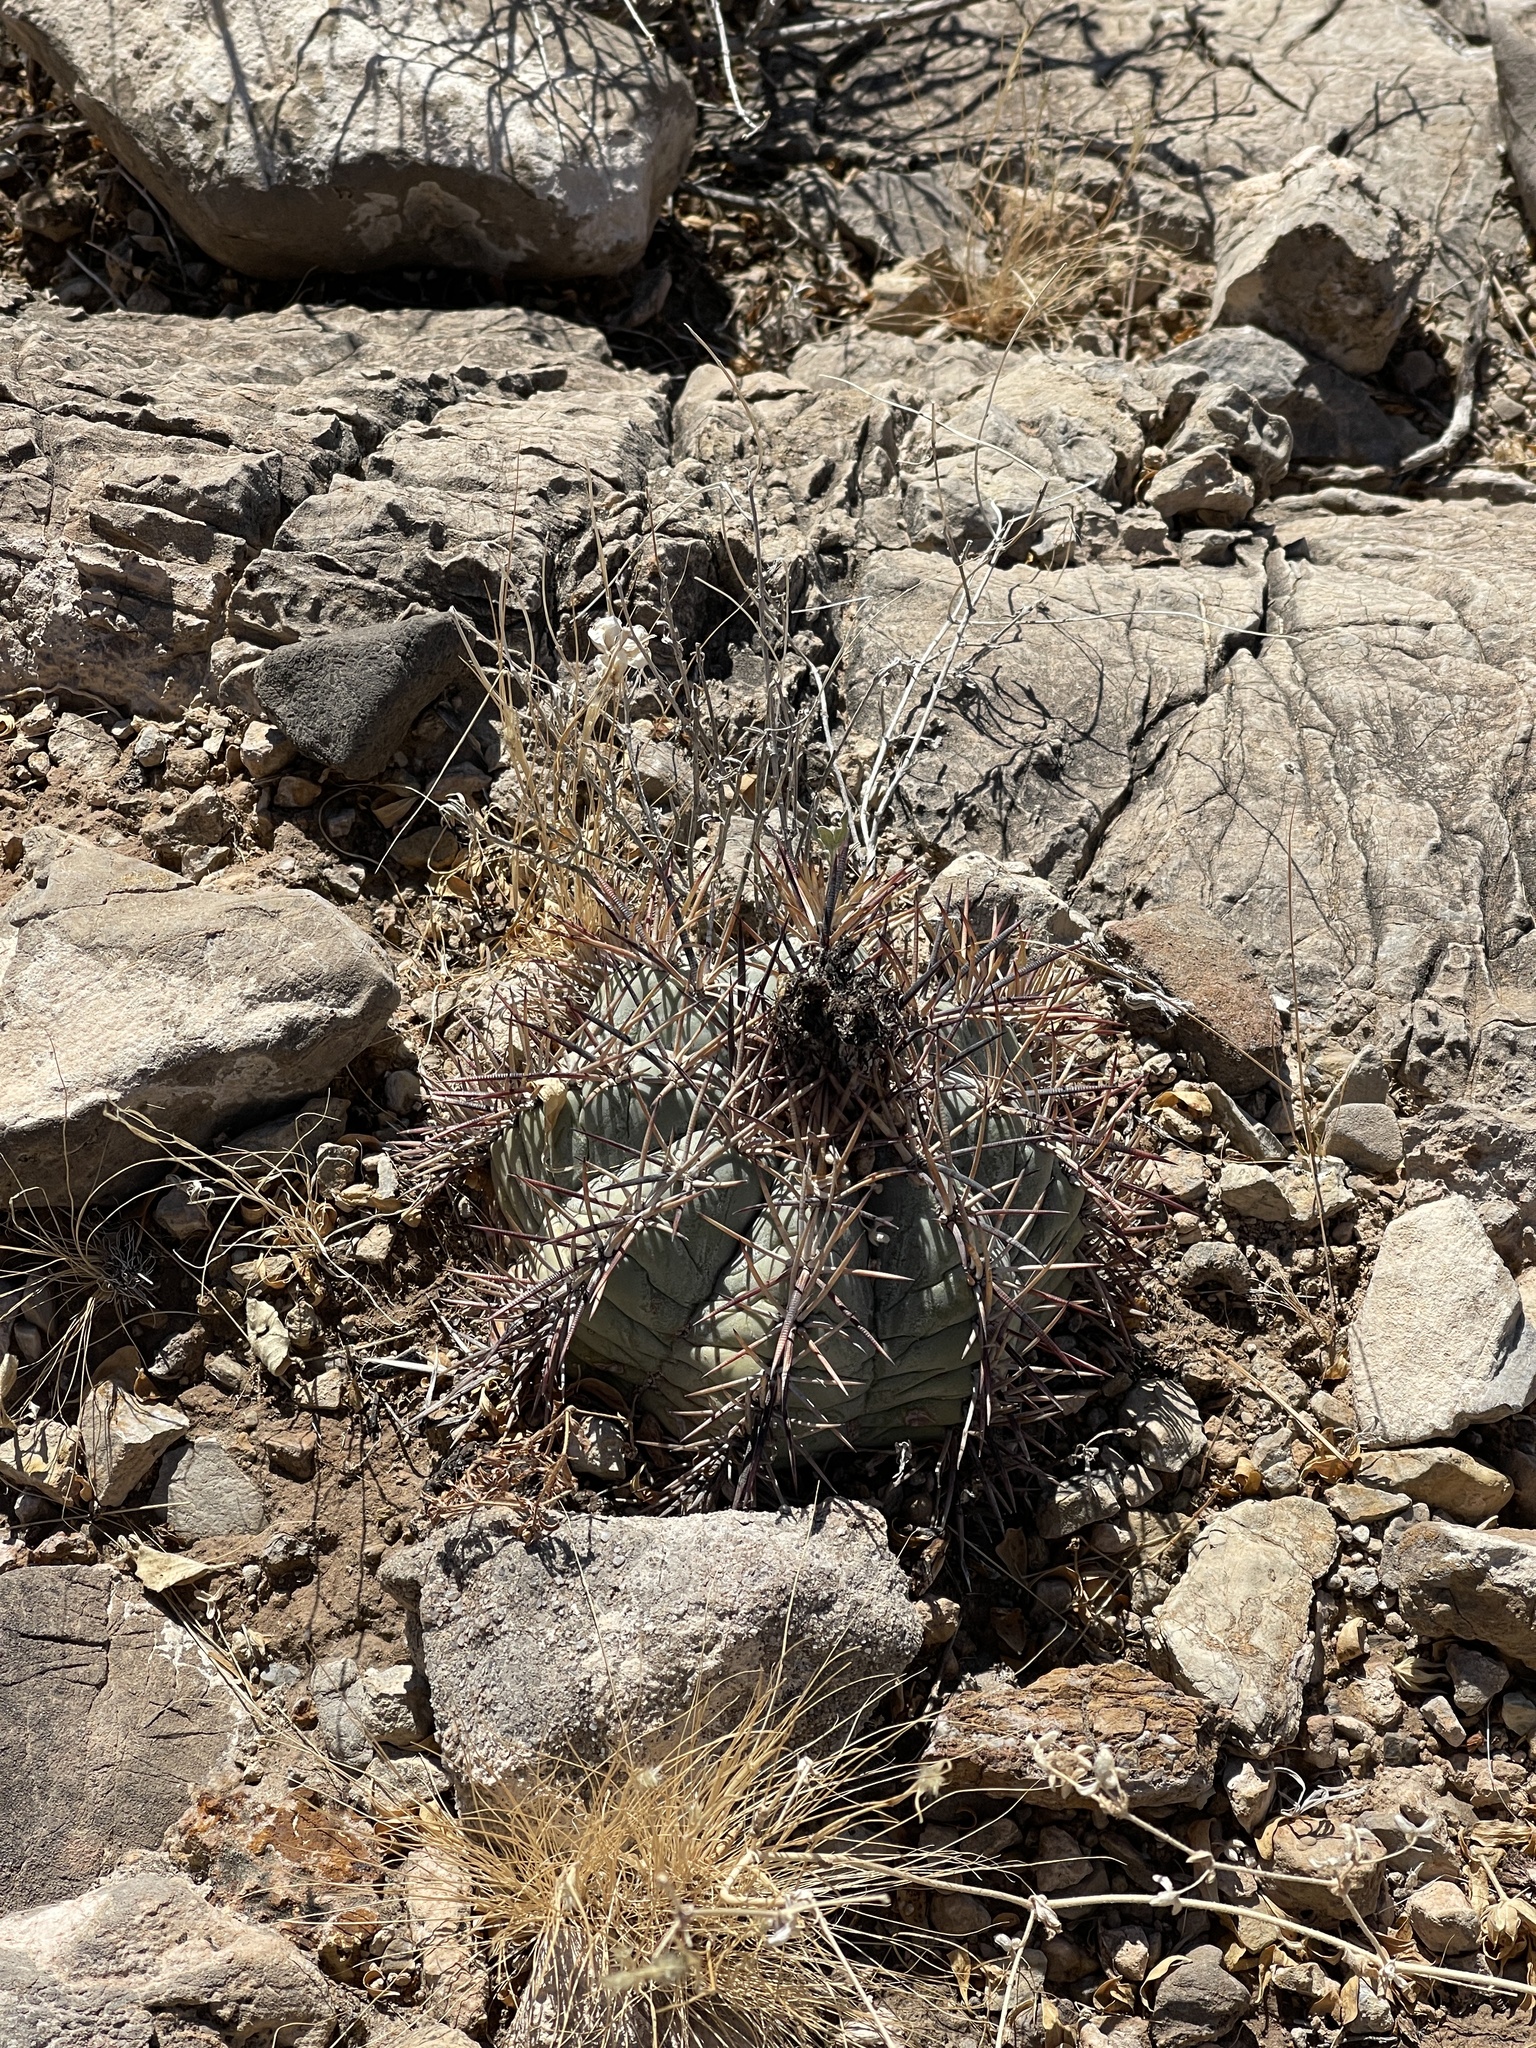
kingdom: Plantae
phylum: Tracheophyta
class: Magnoliopsida
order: Caryophyllales
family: Cactaceae
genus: Echinocactus
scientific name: Echinocactus horizonthalonius
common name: Devilshead
